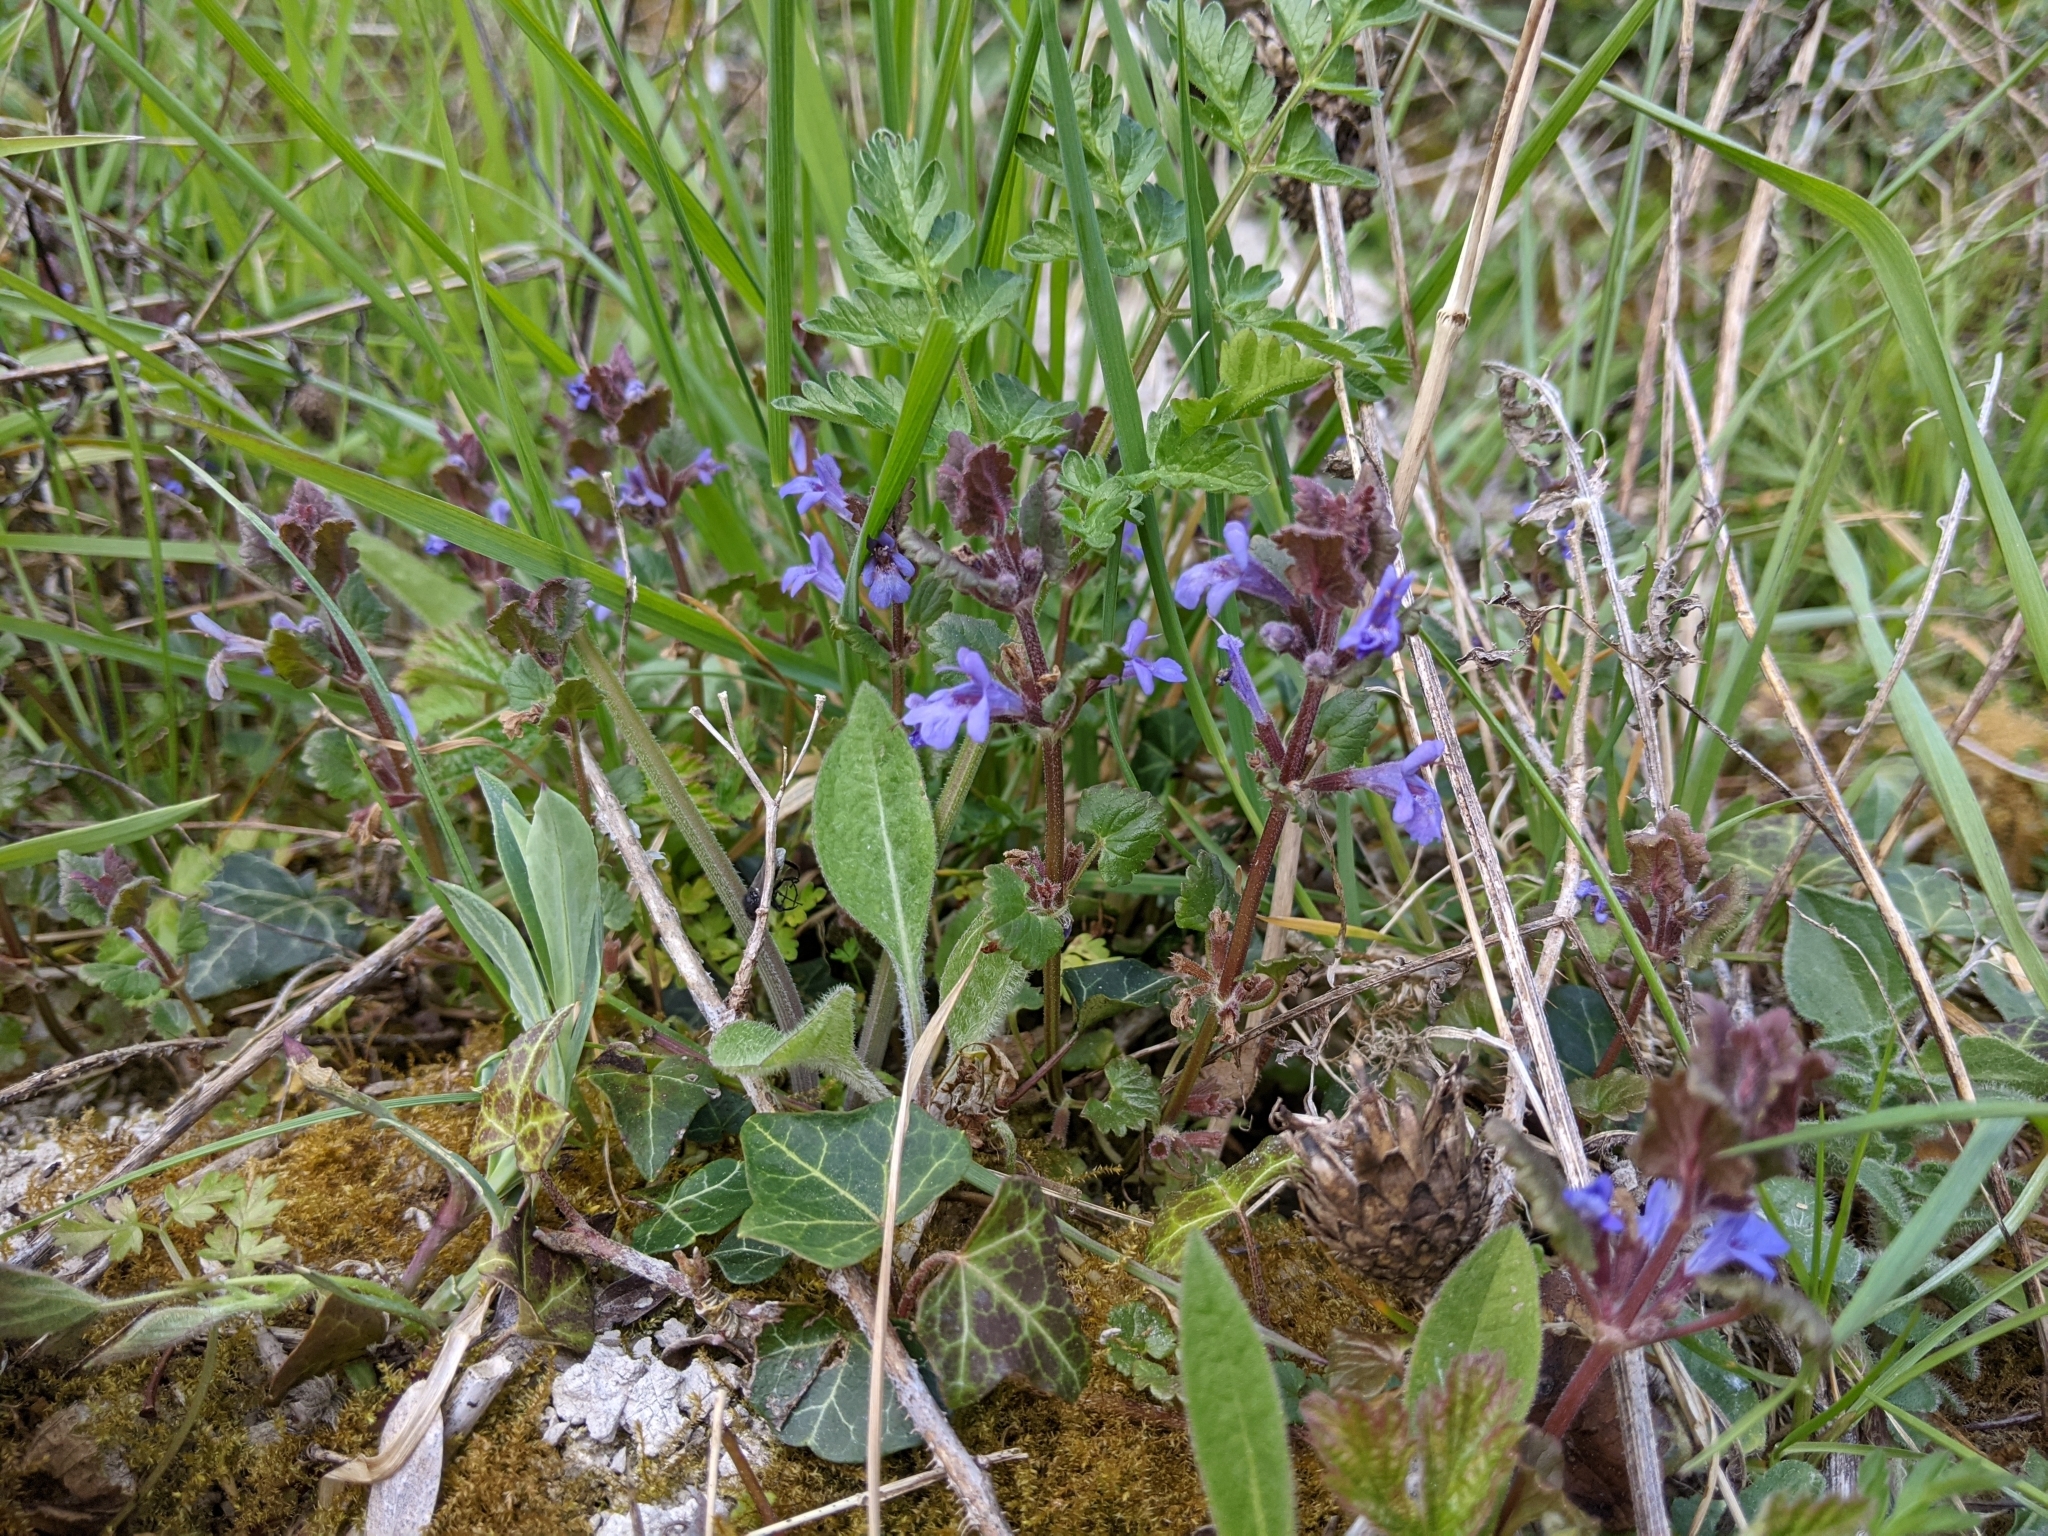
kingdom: Plantae
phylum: Tracheophyta
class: Magnoliopsida
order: Lamiales
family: Lamiaceae
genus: Glechoma
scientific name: Glechoma hederacea
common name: Ground ivy
